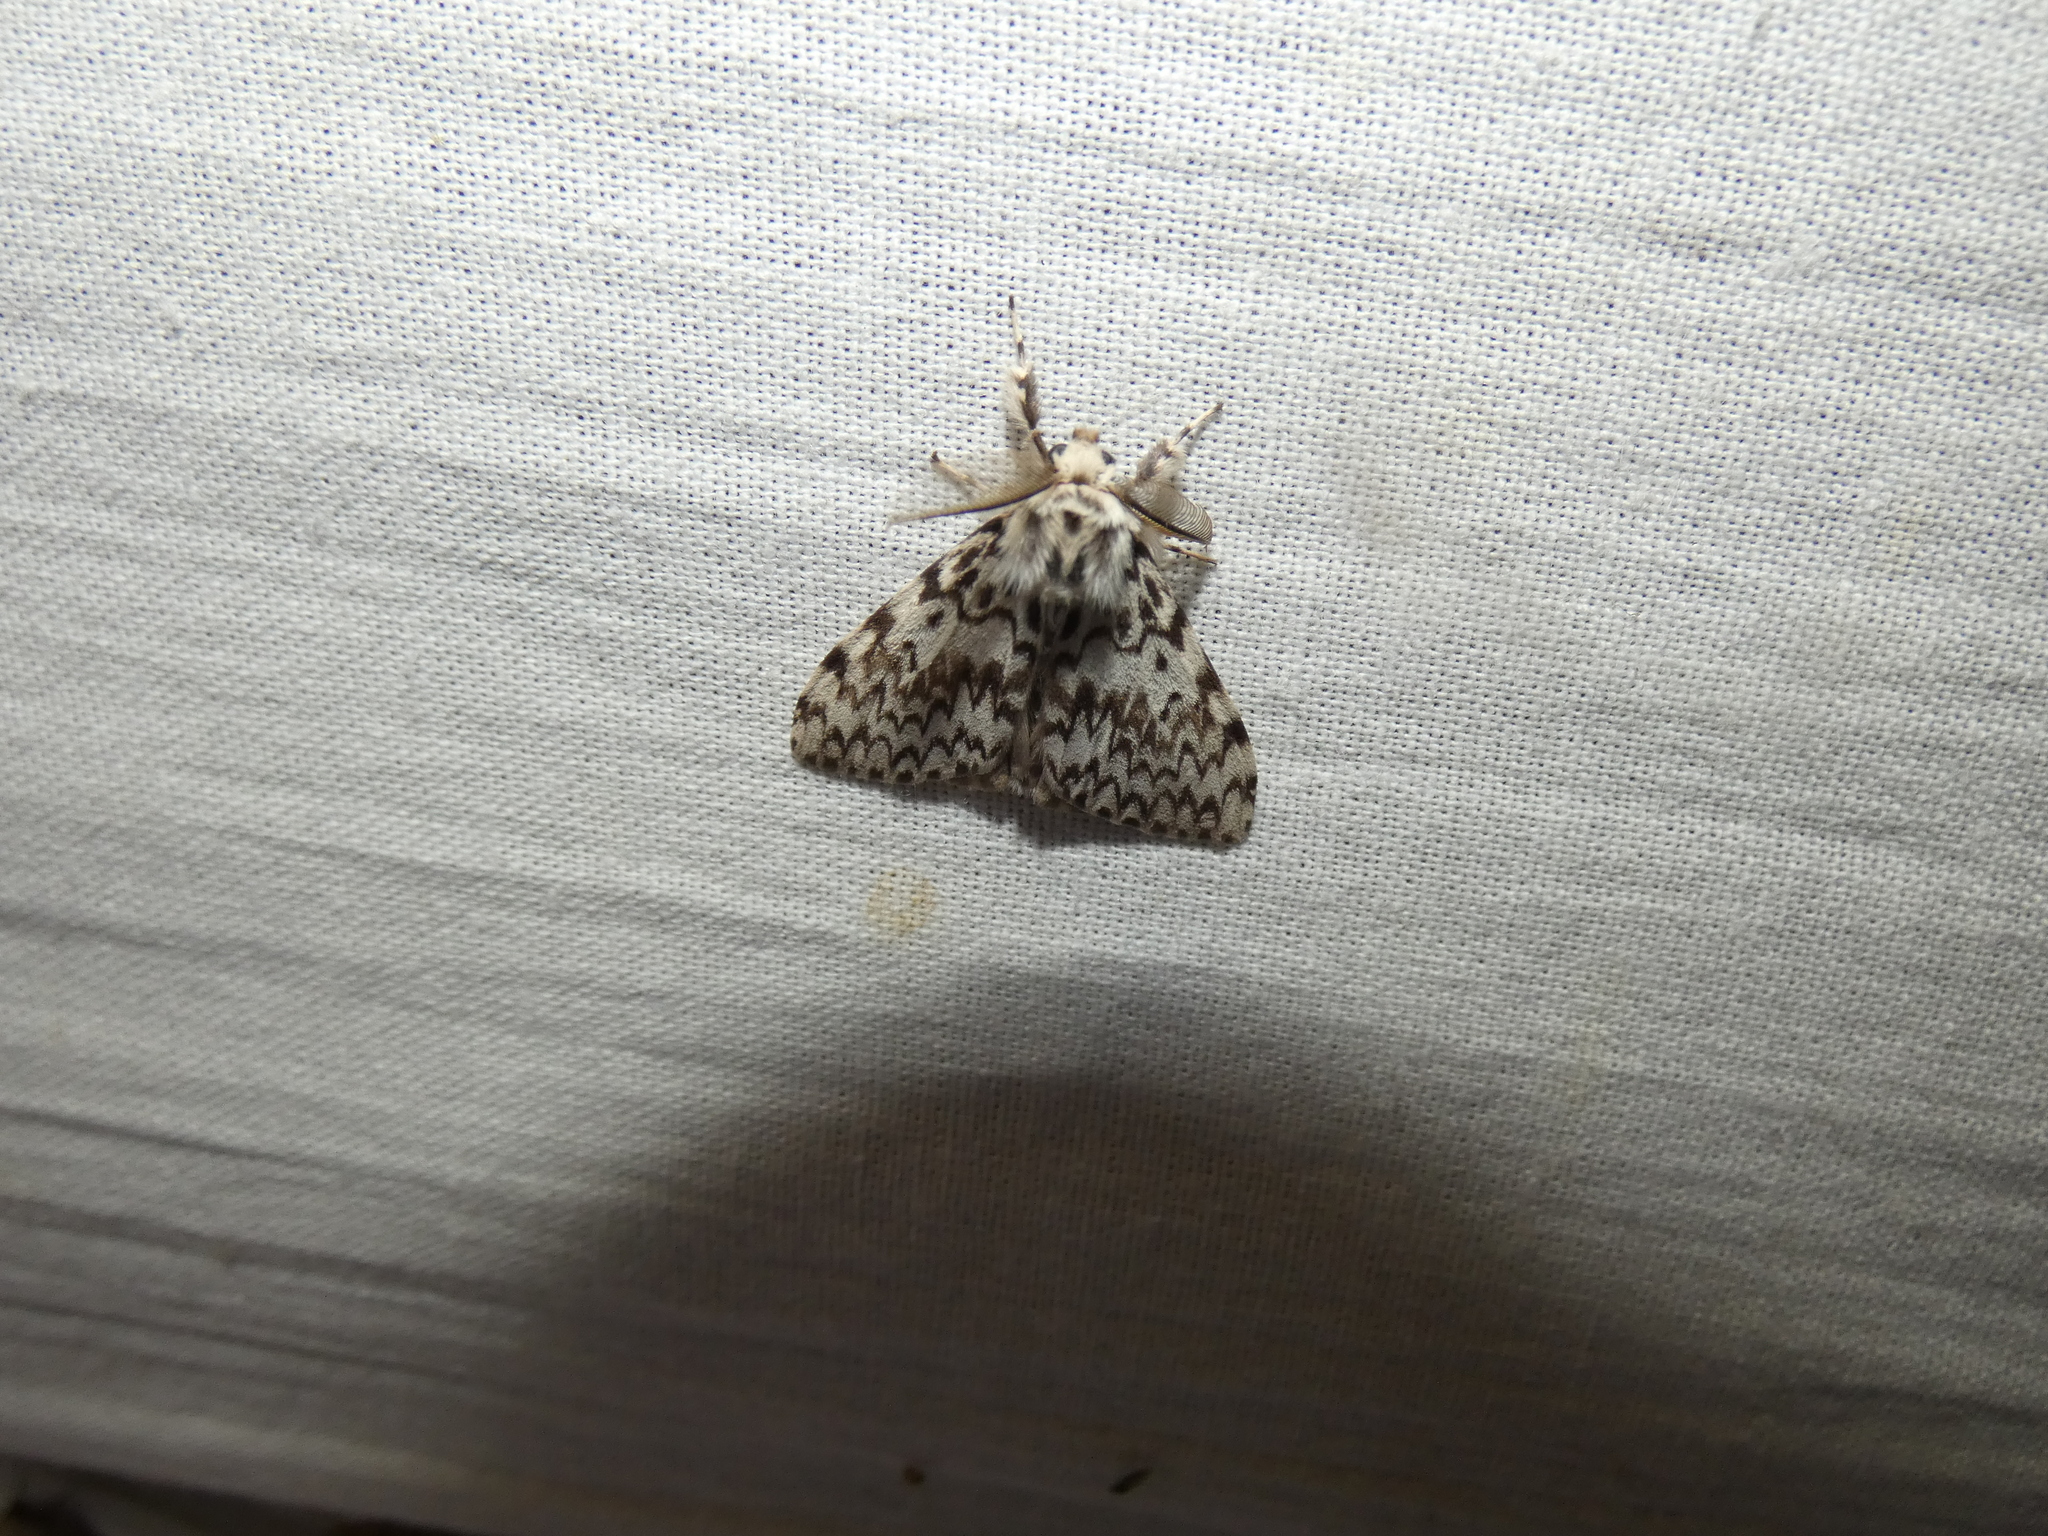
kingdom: Animalia
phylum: Arthropoda
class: Insecta
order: Lepidoptera
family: Erebidae
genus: Lymantria
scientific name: Lymantria monacha
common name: Black arches
